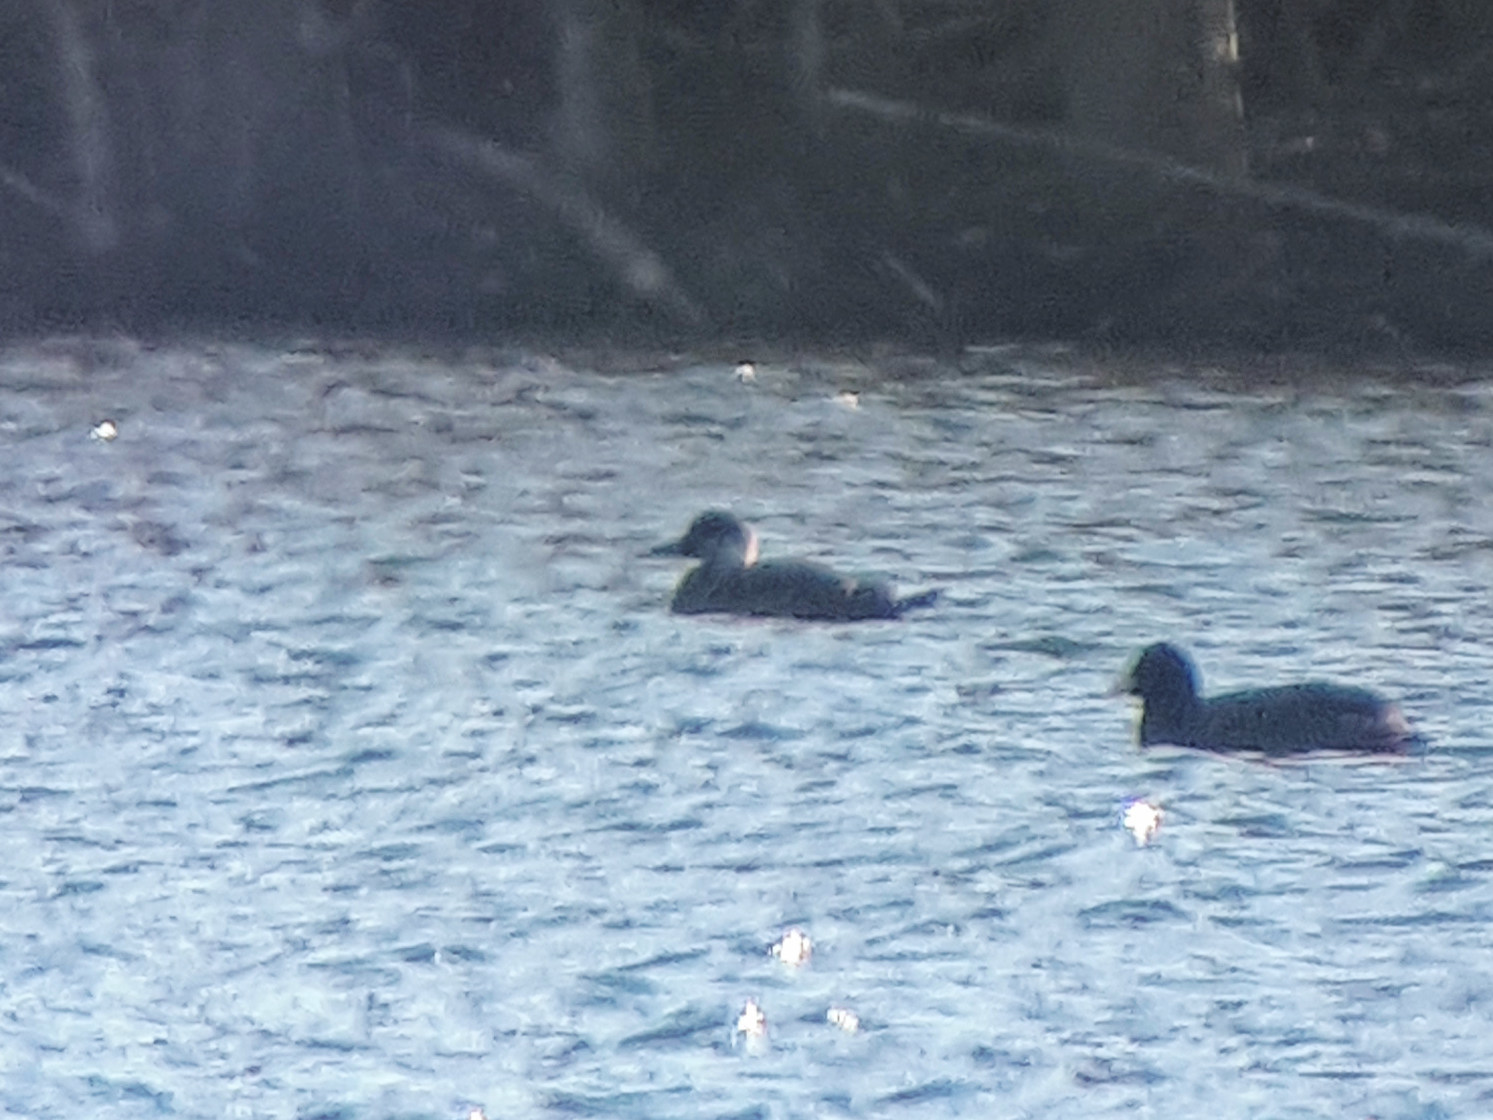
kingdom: Animalia
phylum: Chordata
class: Aves
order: Anseriformes
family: Anatidae
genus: Melanitta
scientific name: Melanitta nigra
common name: Common scoter
